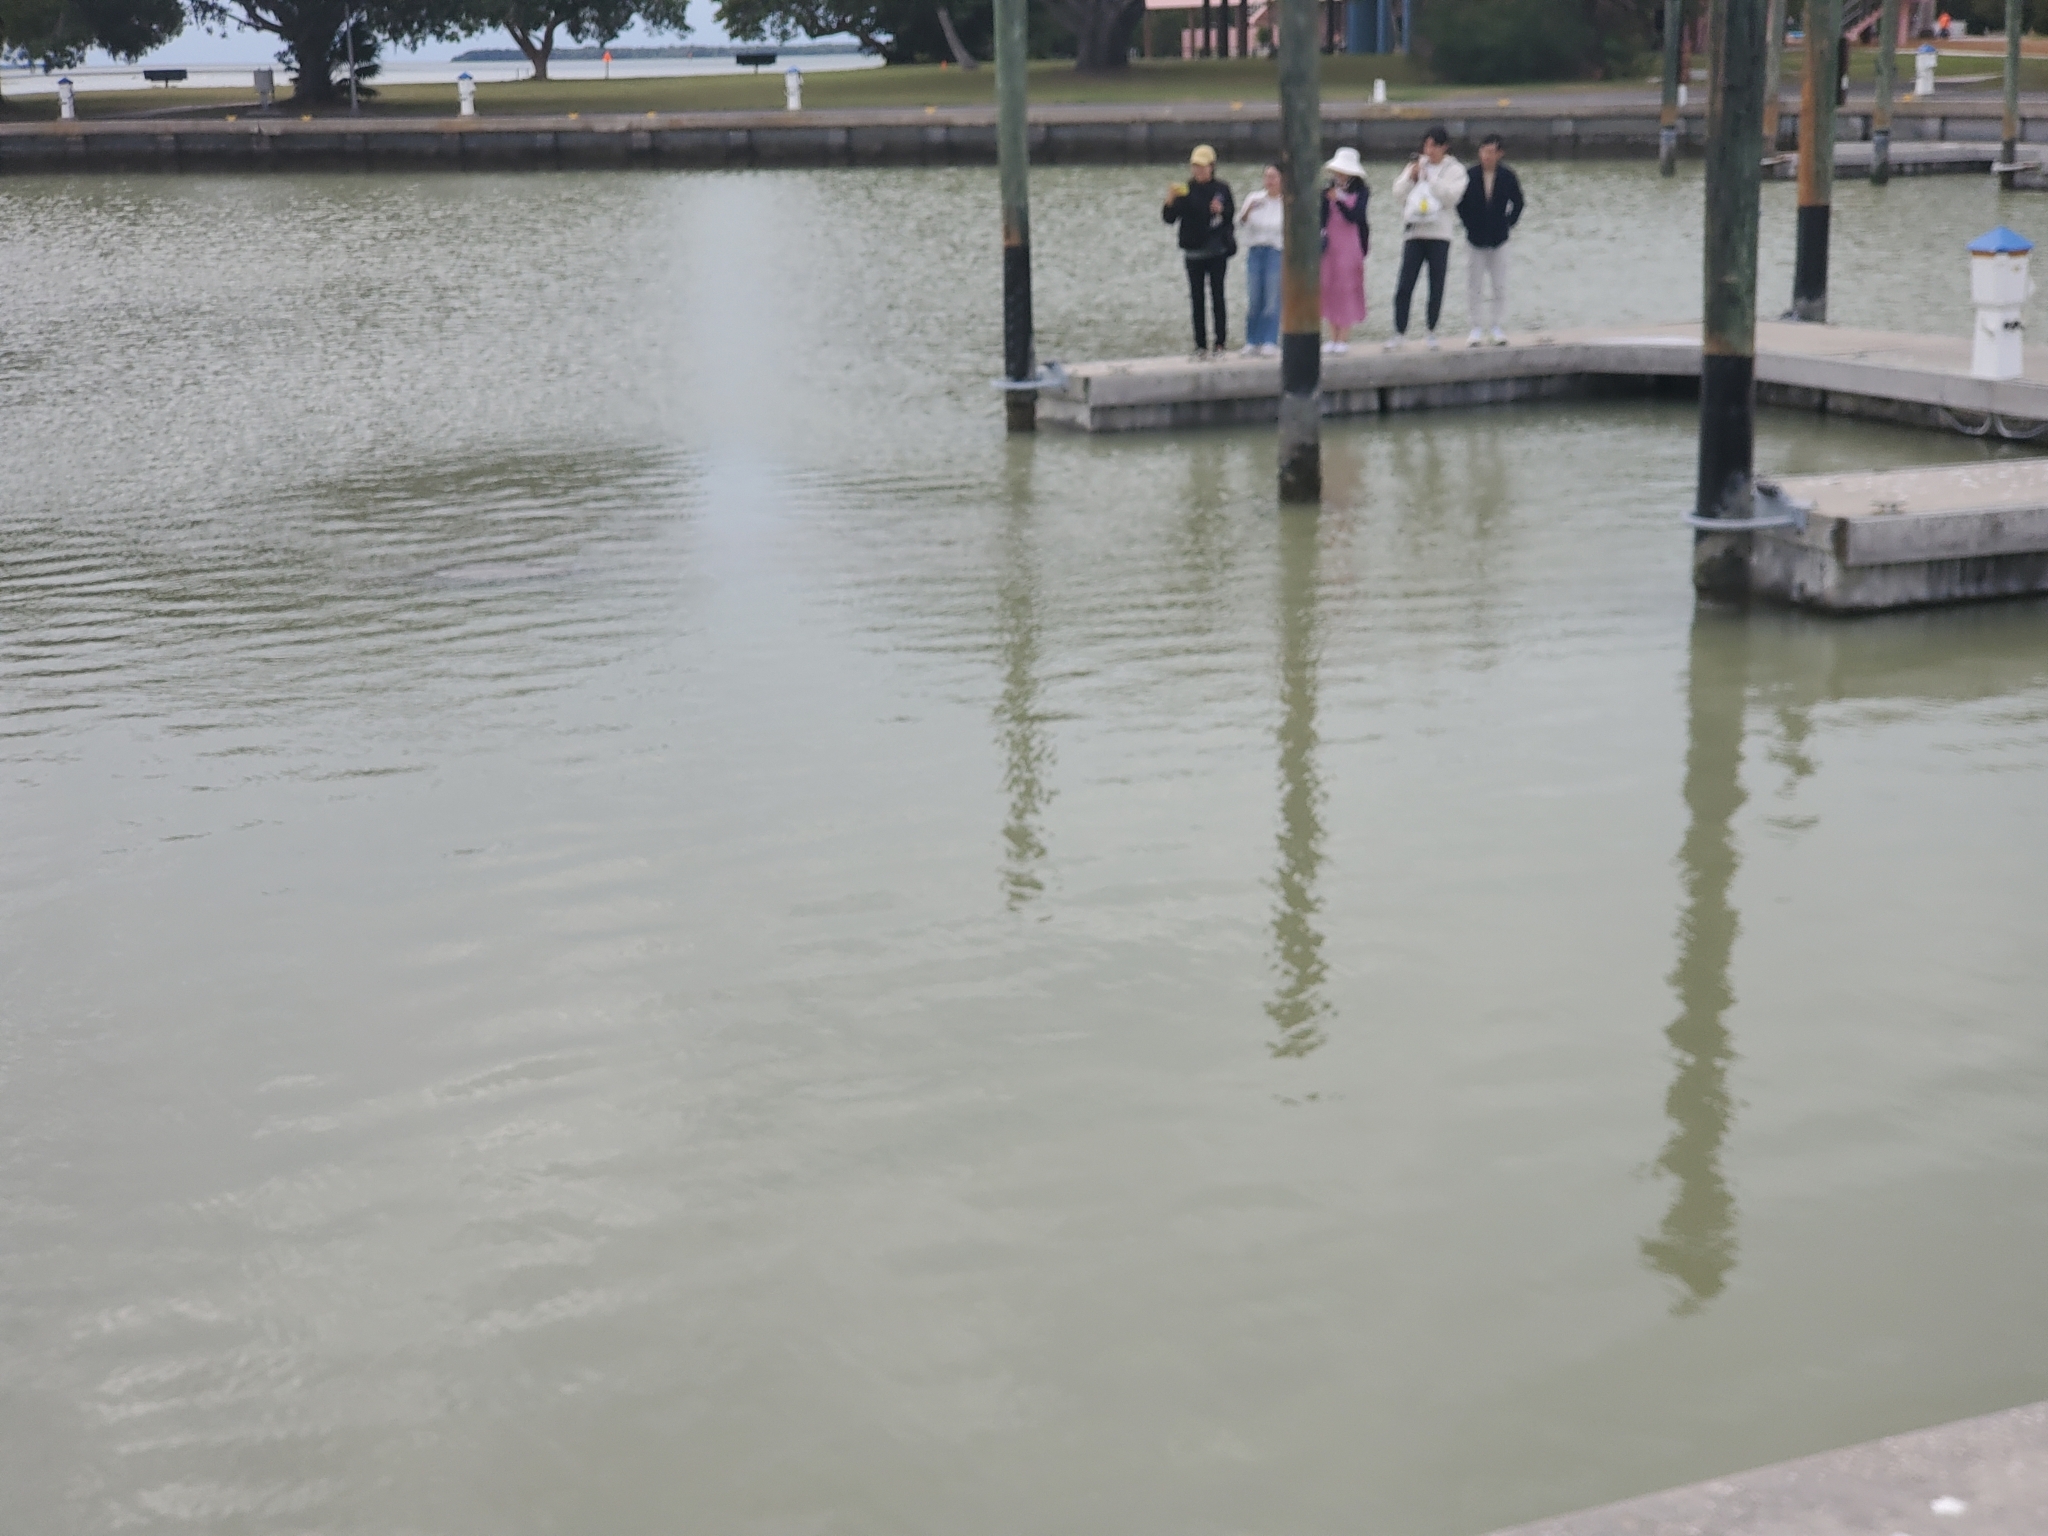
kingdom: Animalia
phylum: Chordata
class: Mammalia
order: Sirenia
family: Trichechidae
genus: Trichechus
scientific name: Trichechus manatus
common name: West indian manatee
